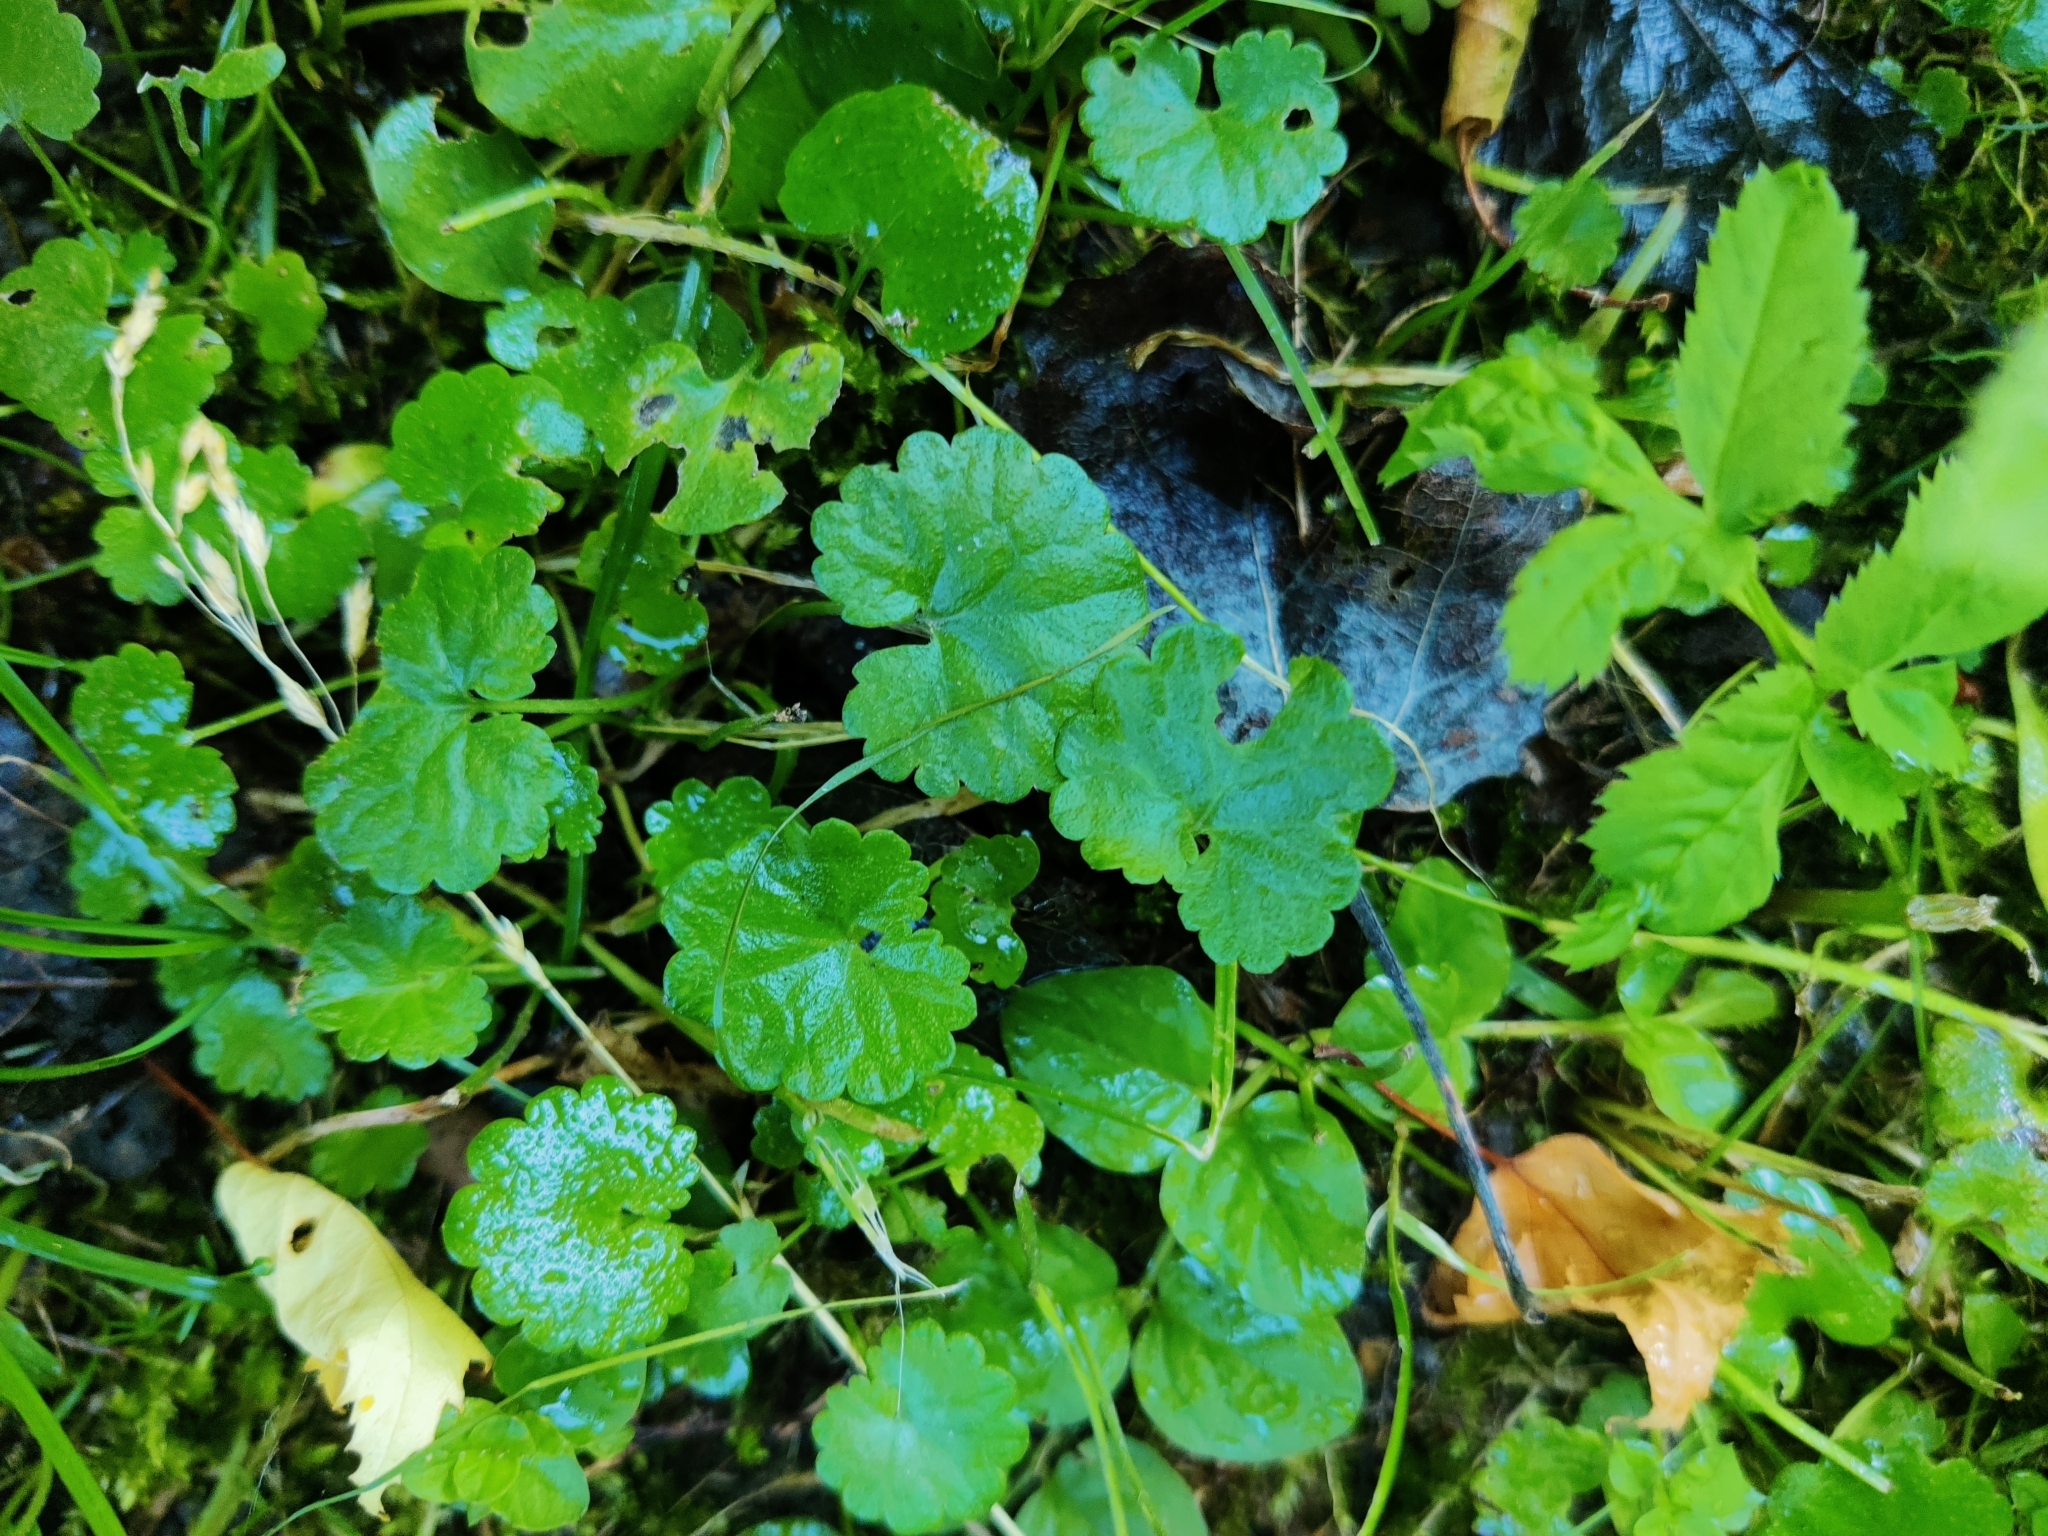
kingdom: Plantae
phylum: Tracheophyta
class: Magnoliopsida
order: Lamiales
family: Lamiaceae
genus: Glechoma
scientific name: Glechoma hederacea
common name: Ground ivy
